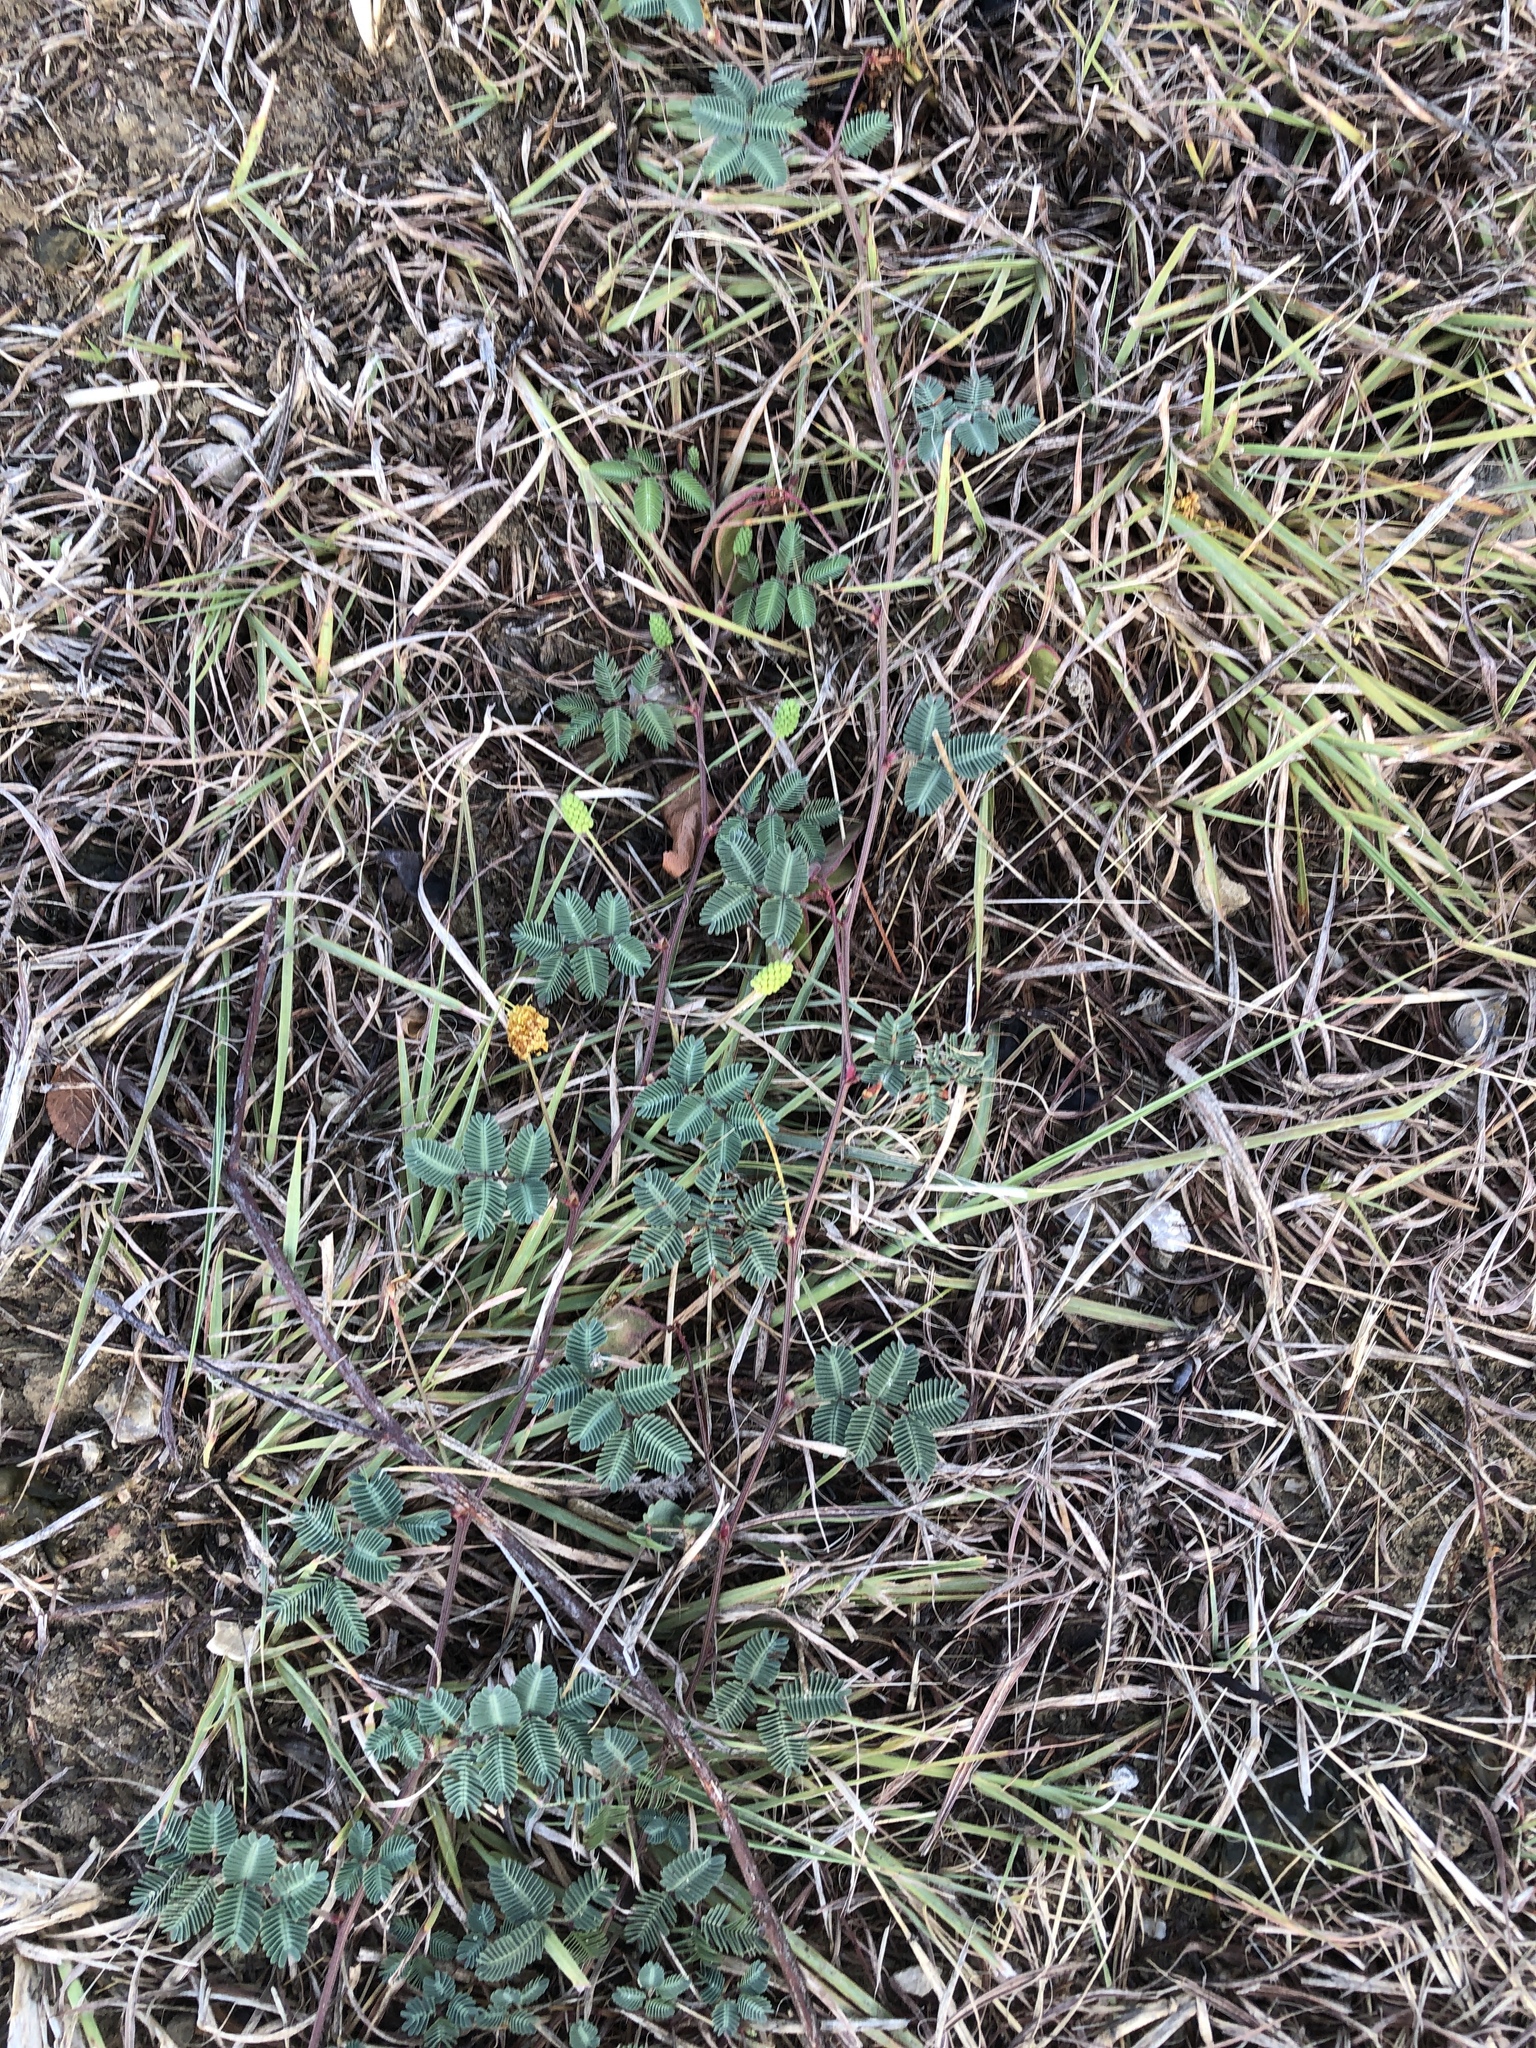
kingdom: Plantae
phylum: Tracheophyta
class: Magnoliopsida
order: Fabales
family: Fabaceae
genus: Neptunia
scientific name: Neptunia lutea
